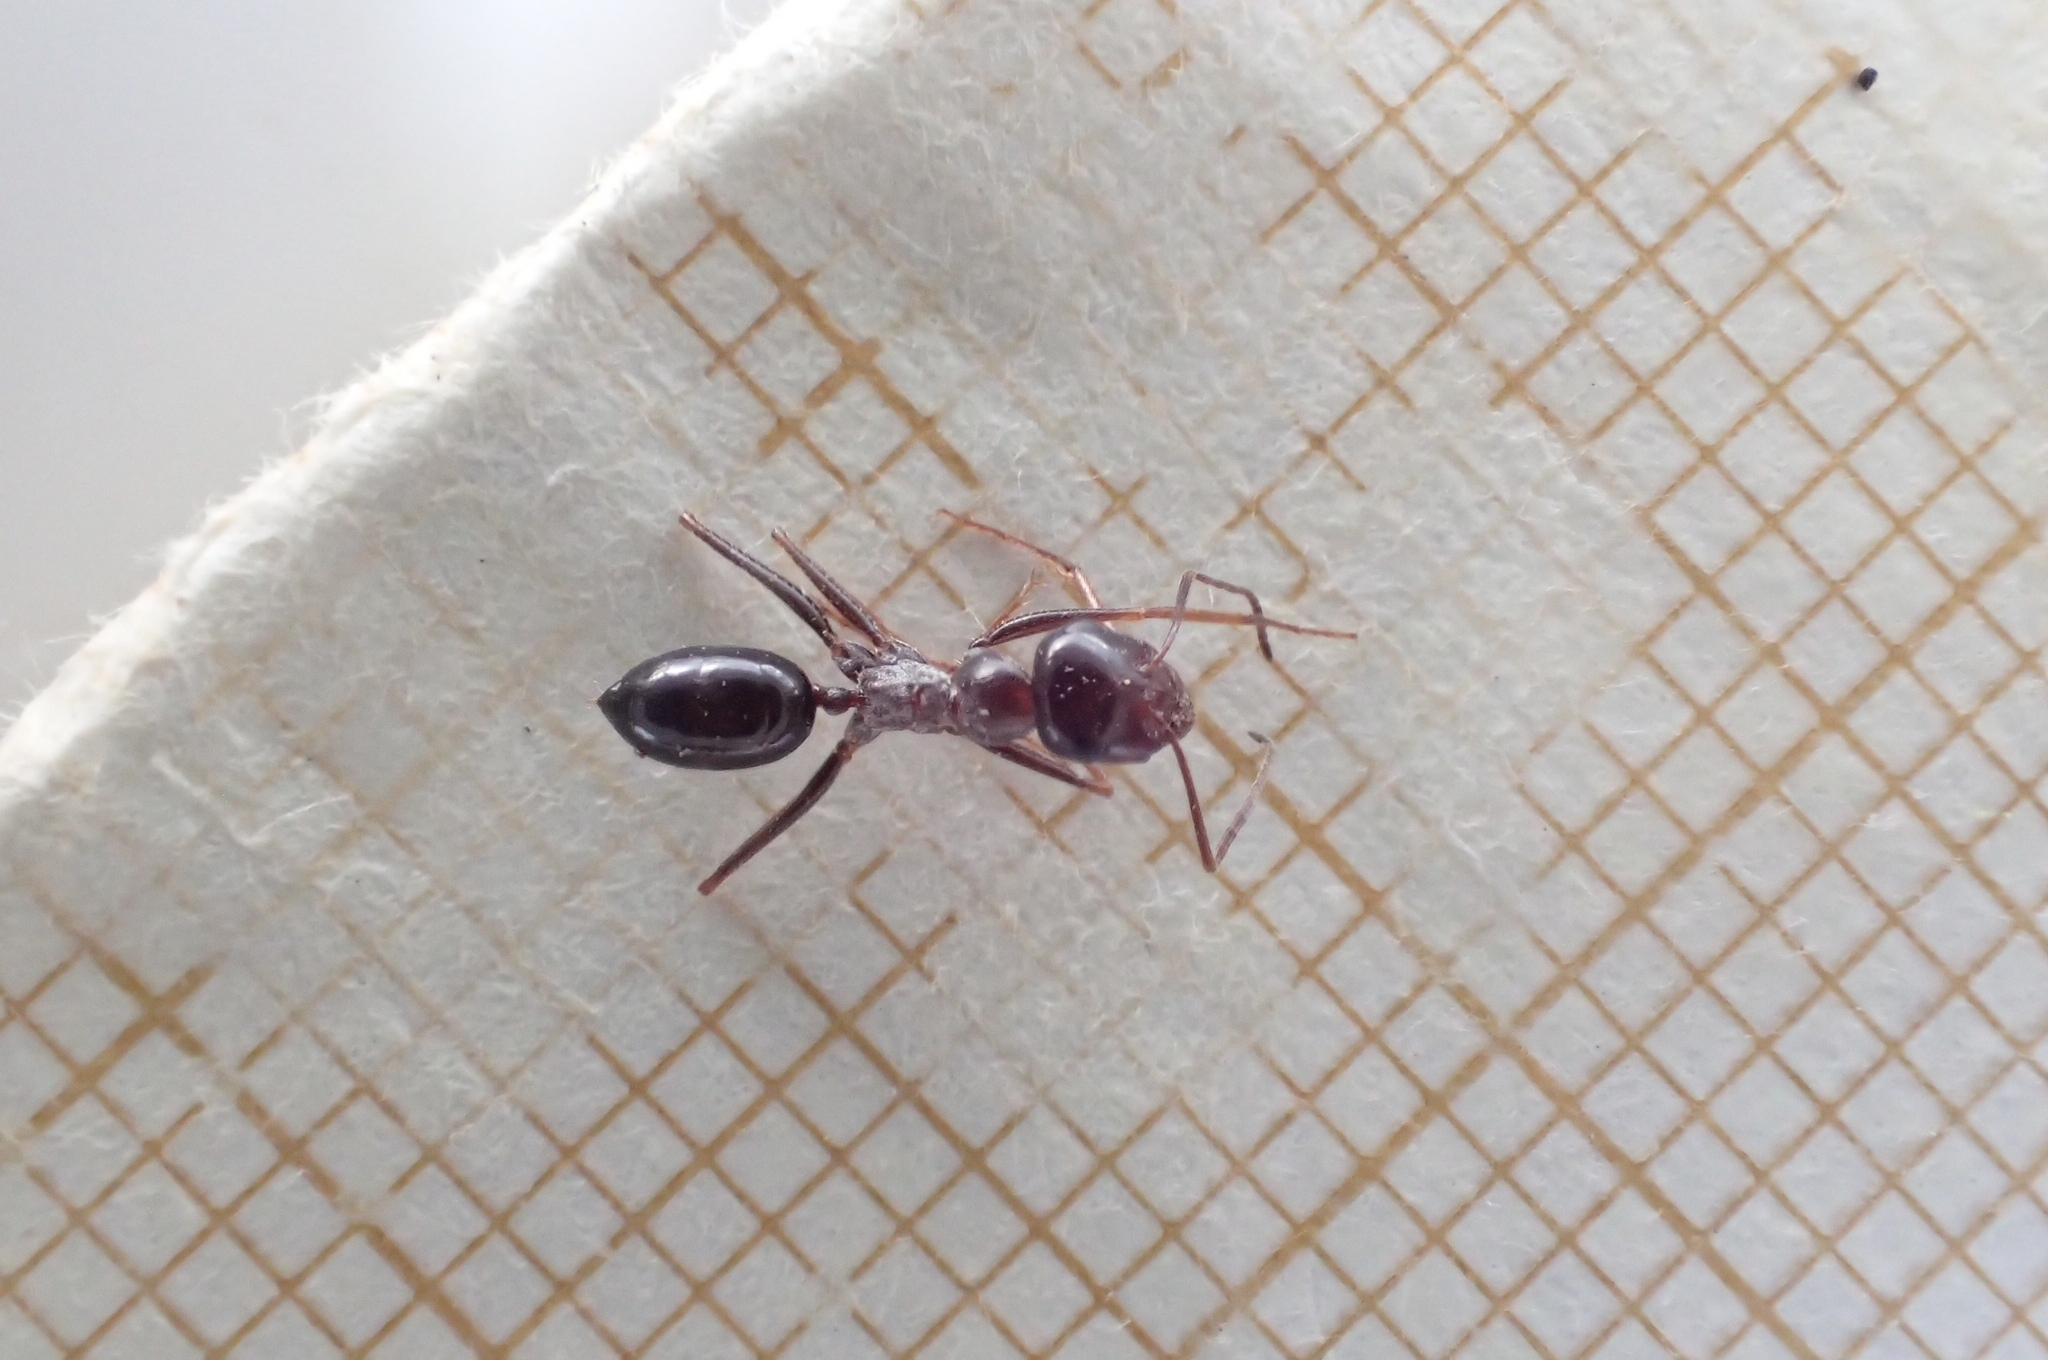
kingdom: Animalia
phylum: Arthropoda
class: Insecta
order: Hymenoptera
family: Formicidae
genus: Cataglyphis
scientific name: Cataglyphis ibericus
